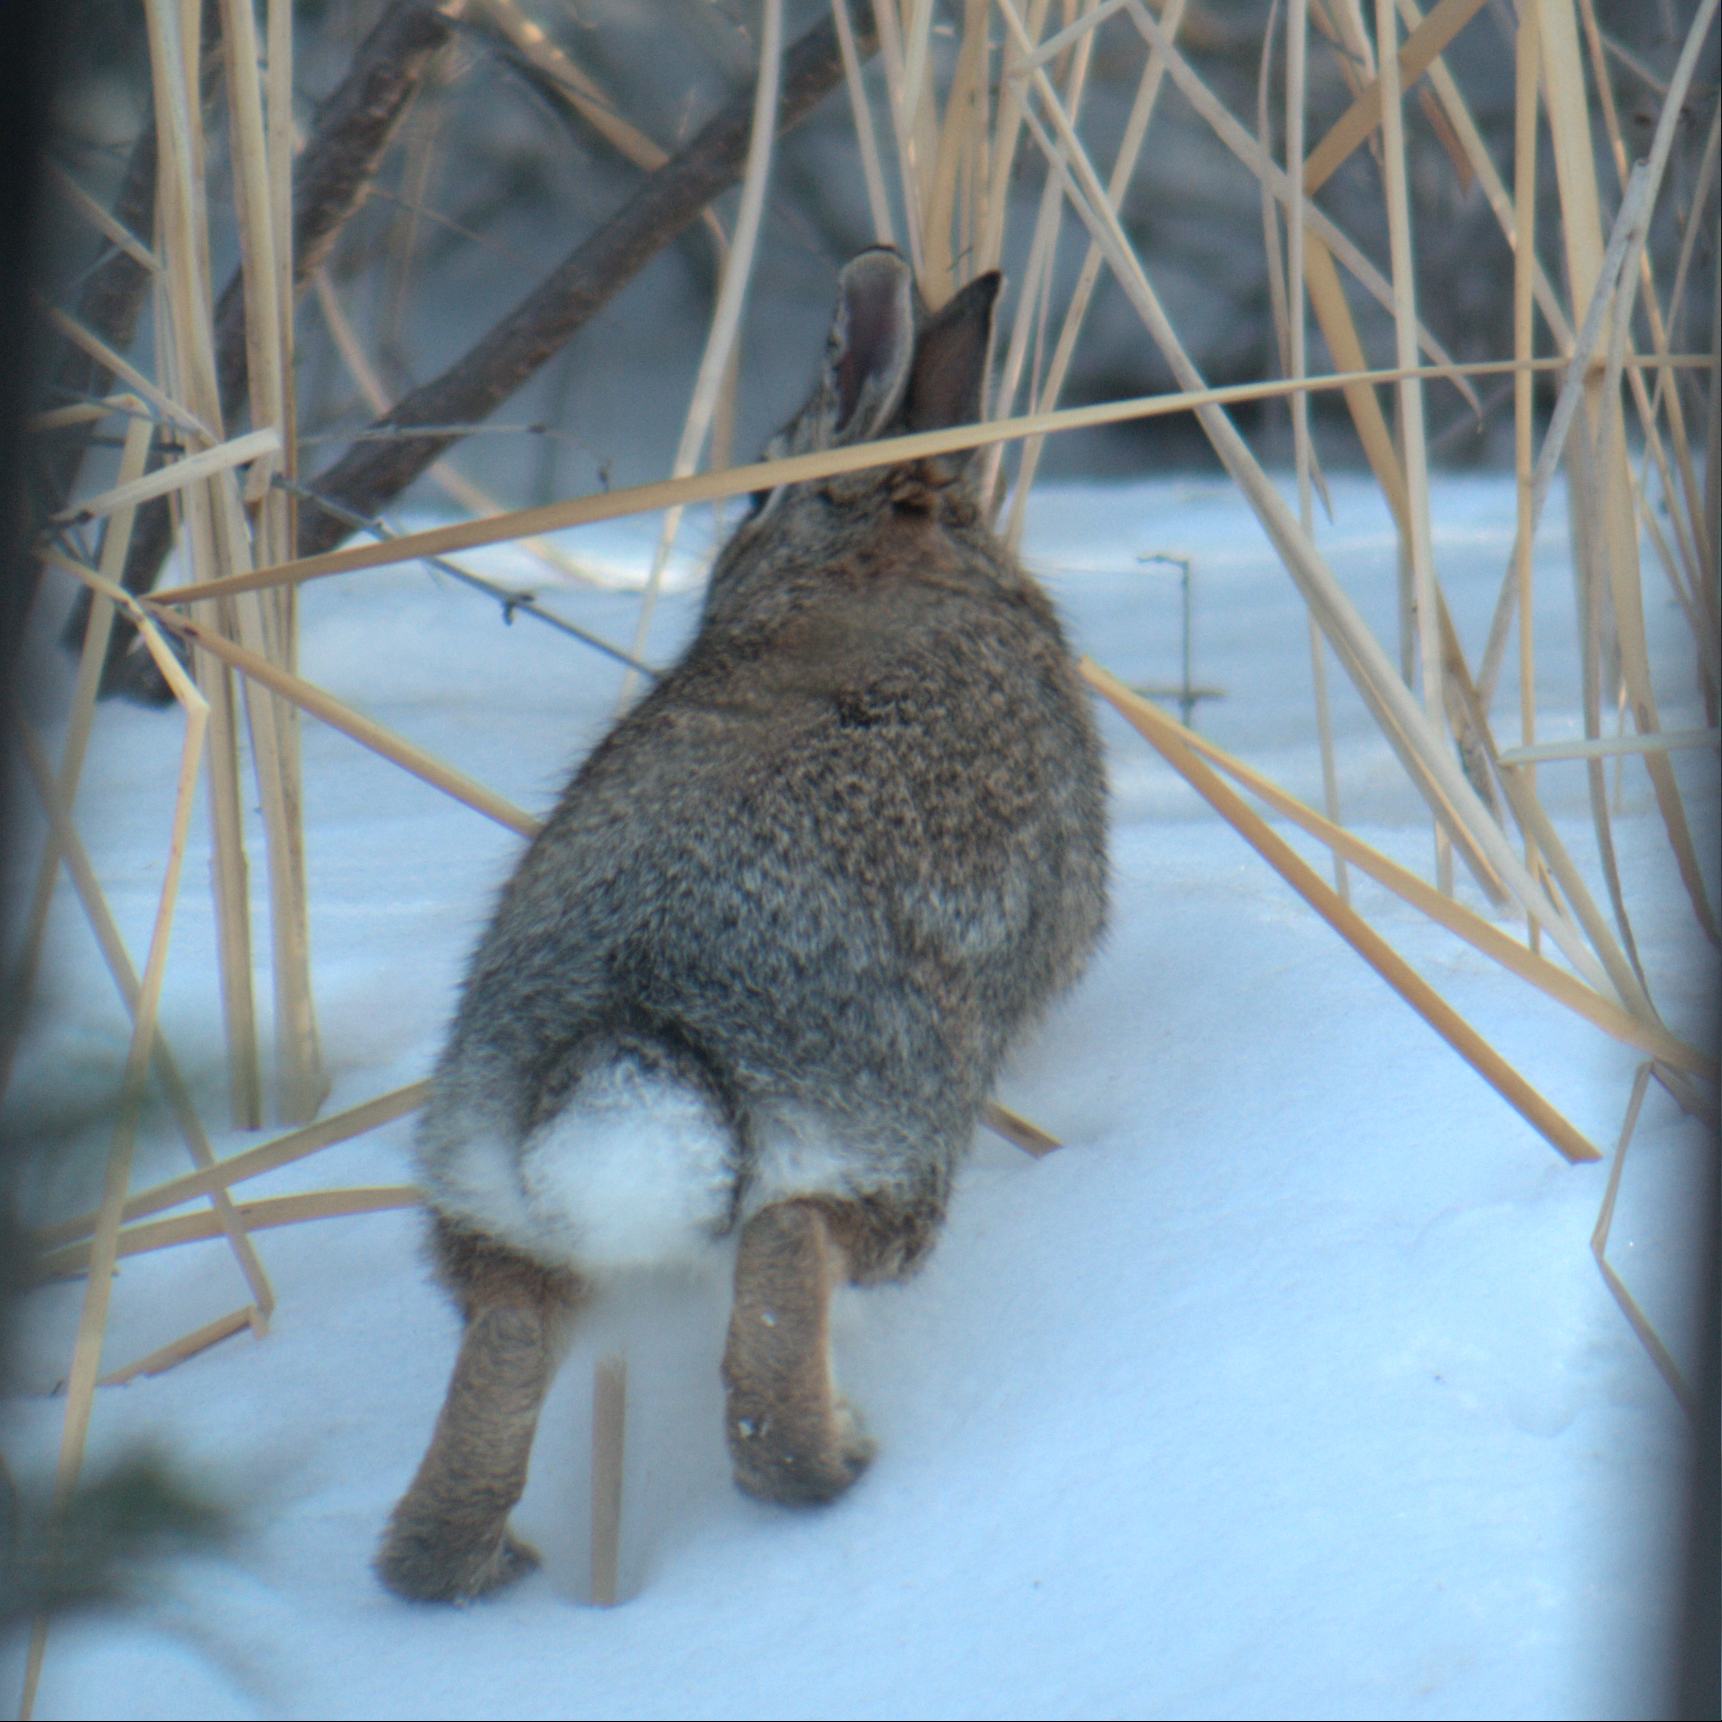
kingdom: Animalia
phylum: Chordata
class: Mammalia
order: Lagomorpha
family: Leporidae
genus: Sylvilagus
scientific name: Sylvilagus floridanus
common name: Eastern cottontail
